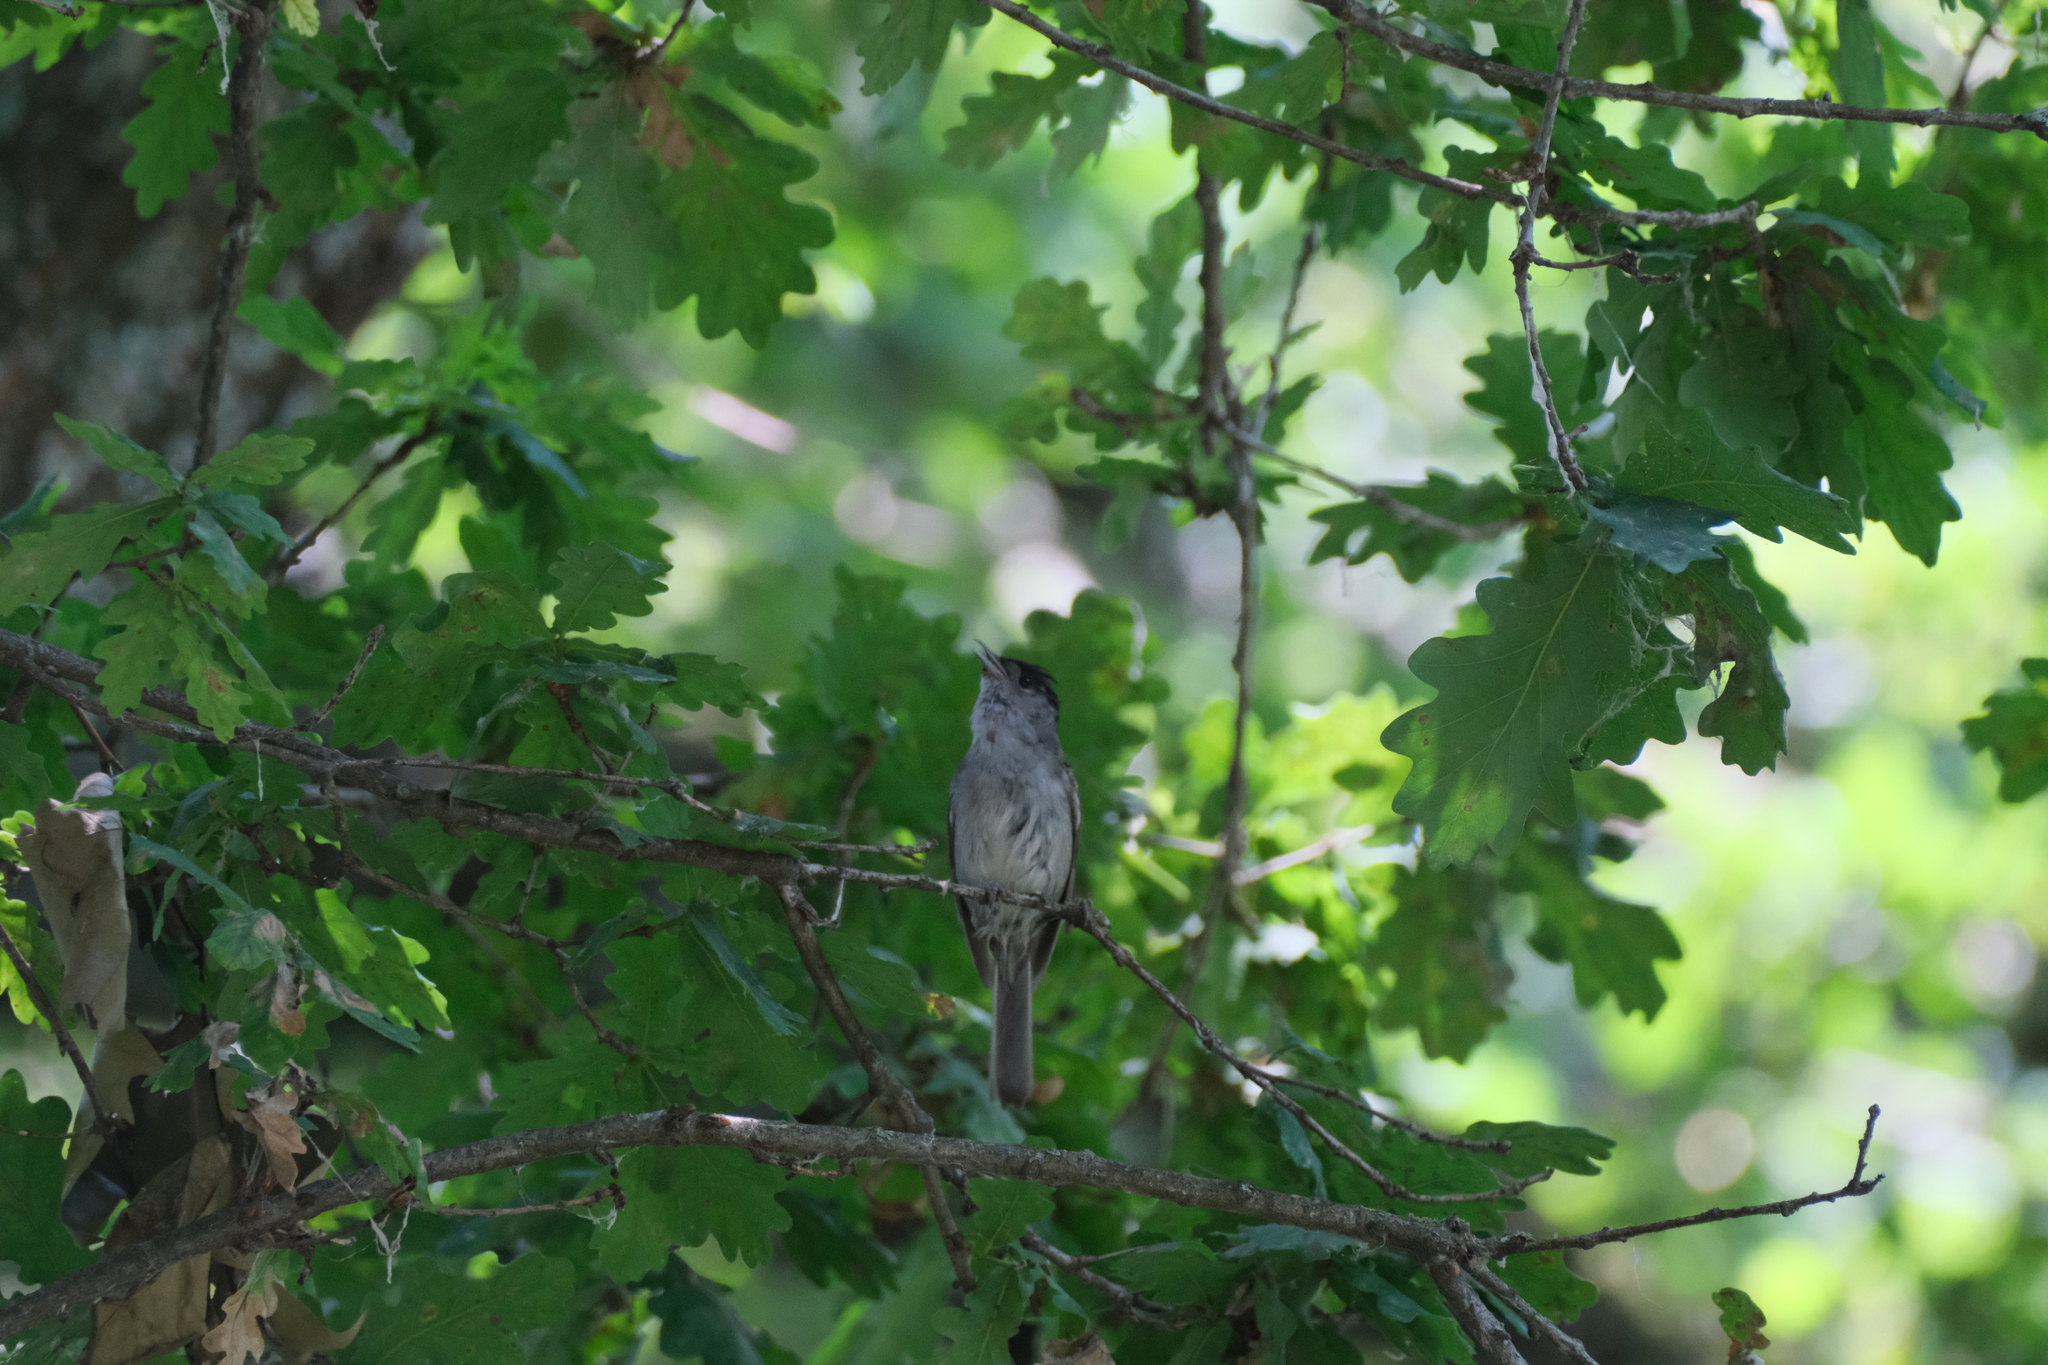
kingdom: Animalia
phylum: Chordata
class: Aves
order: Passeriformes
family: Sylviidae
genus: Sylvia
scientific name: Sylvia atricapilla
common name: Eurasian blackcap
